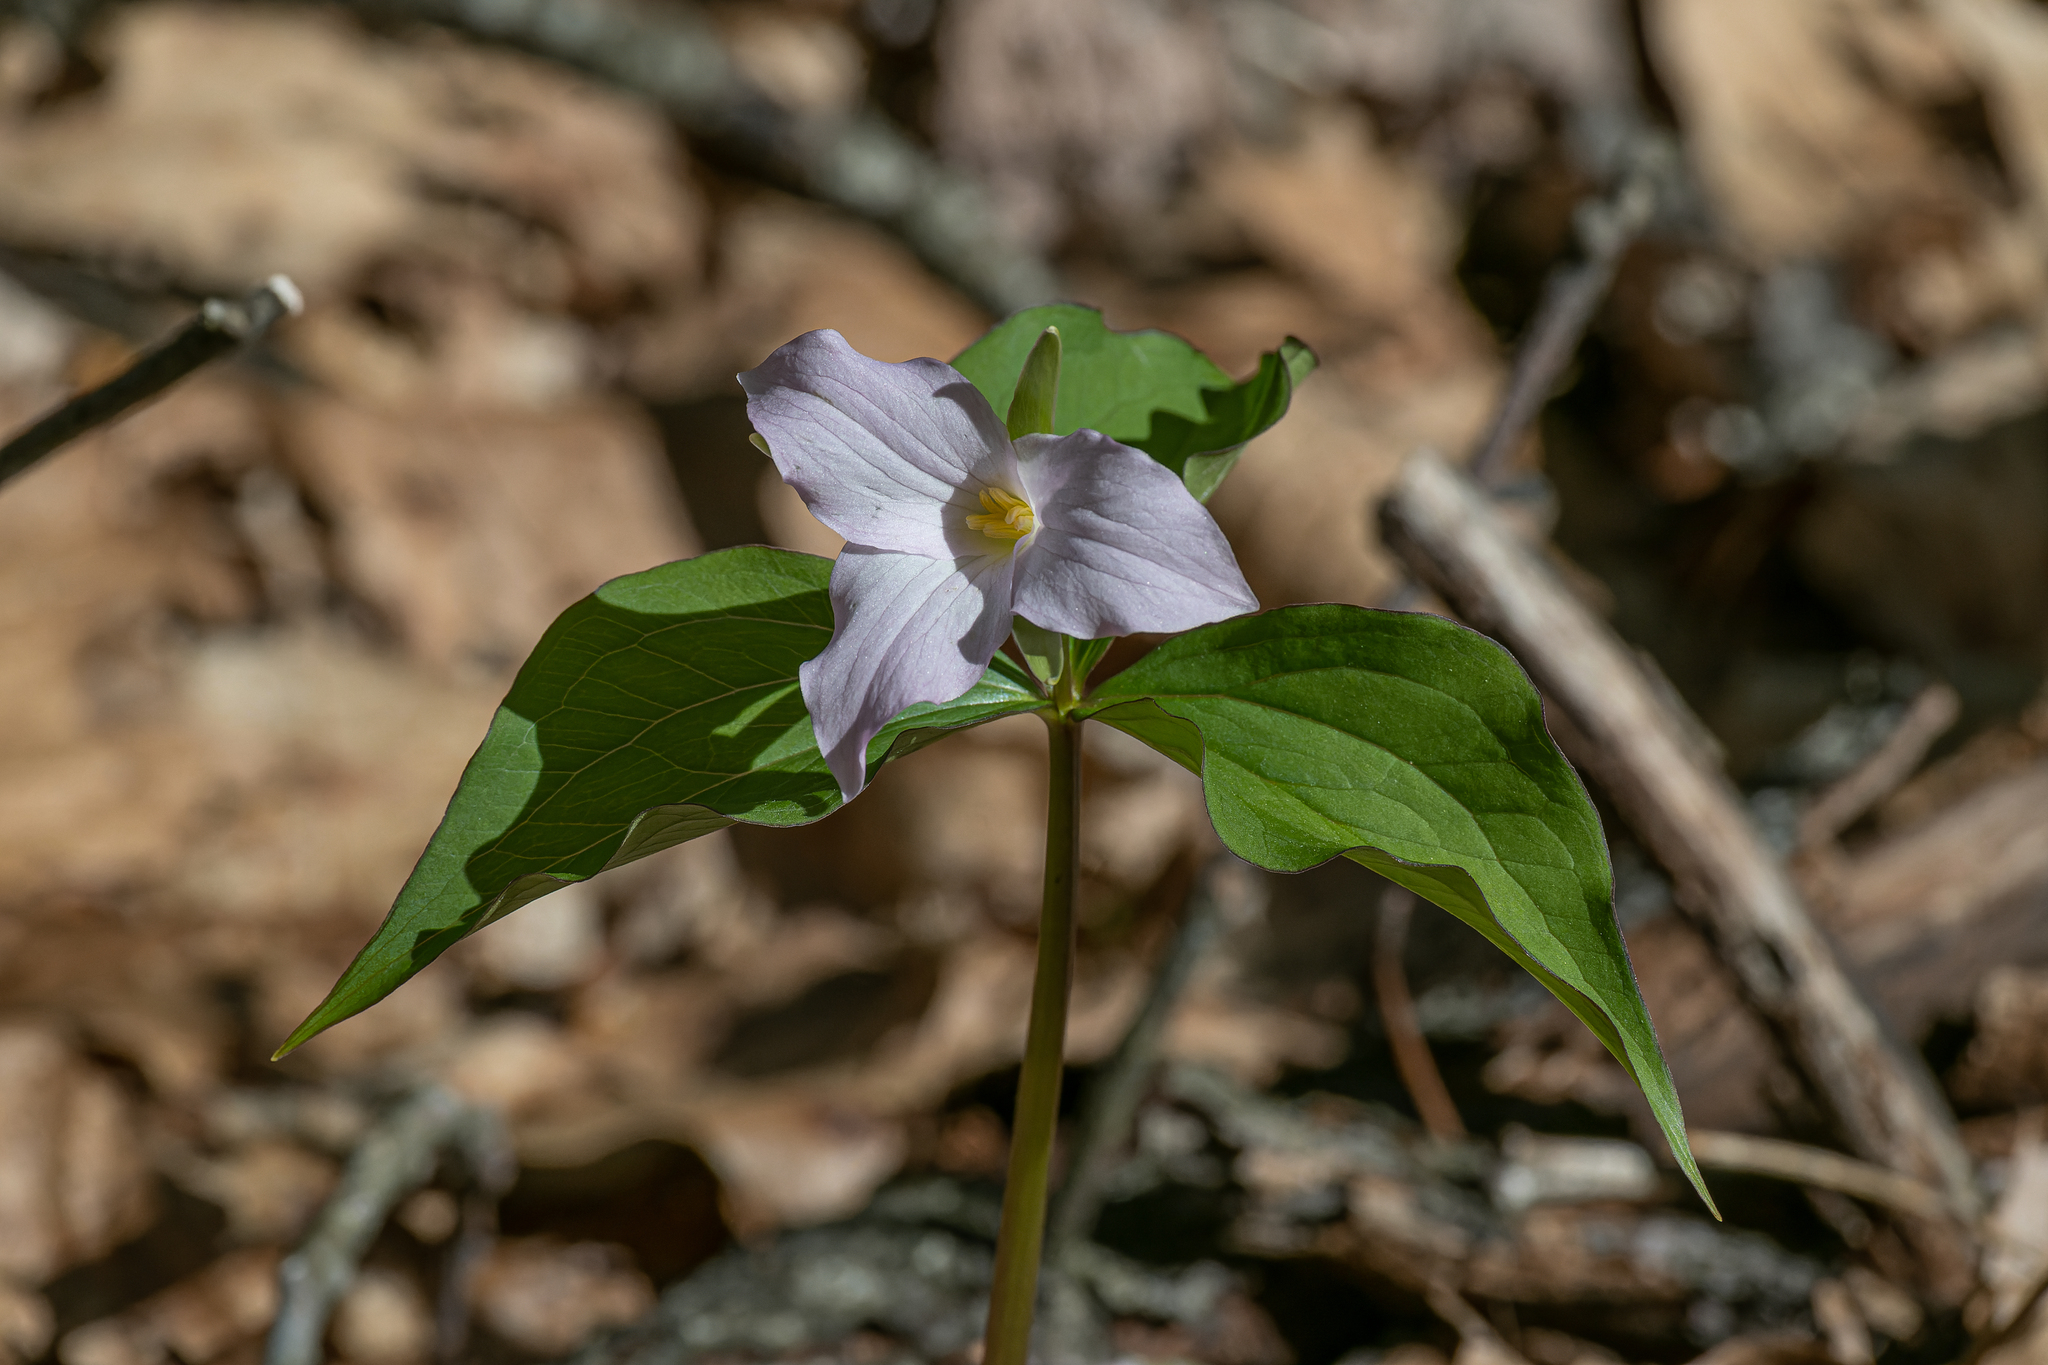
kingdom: Plantae
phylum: Tracheophyta
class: Liliopsida
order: Liliales
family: Melanthiaceae
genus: Trillium
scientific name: Trillium grandiflorum
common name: Great white trillium
